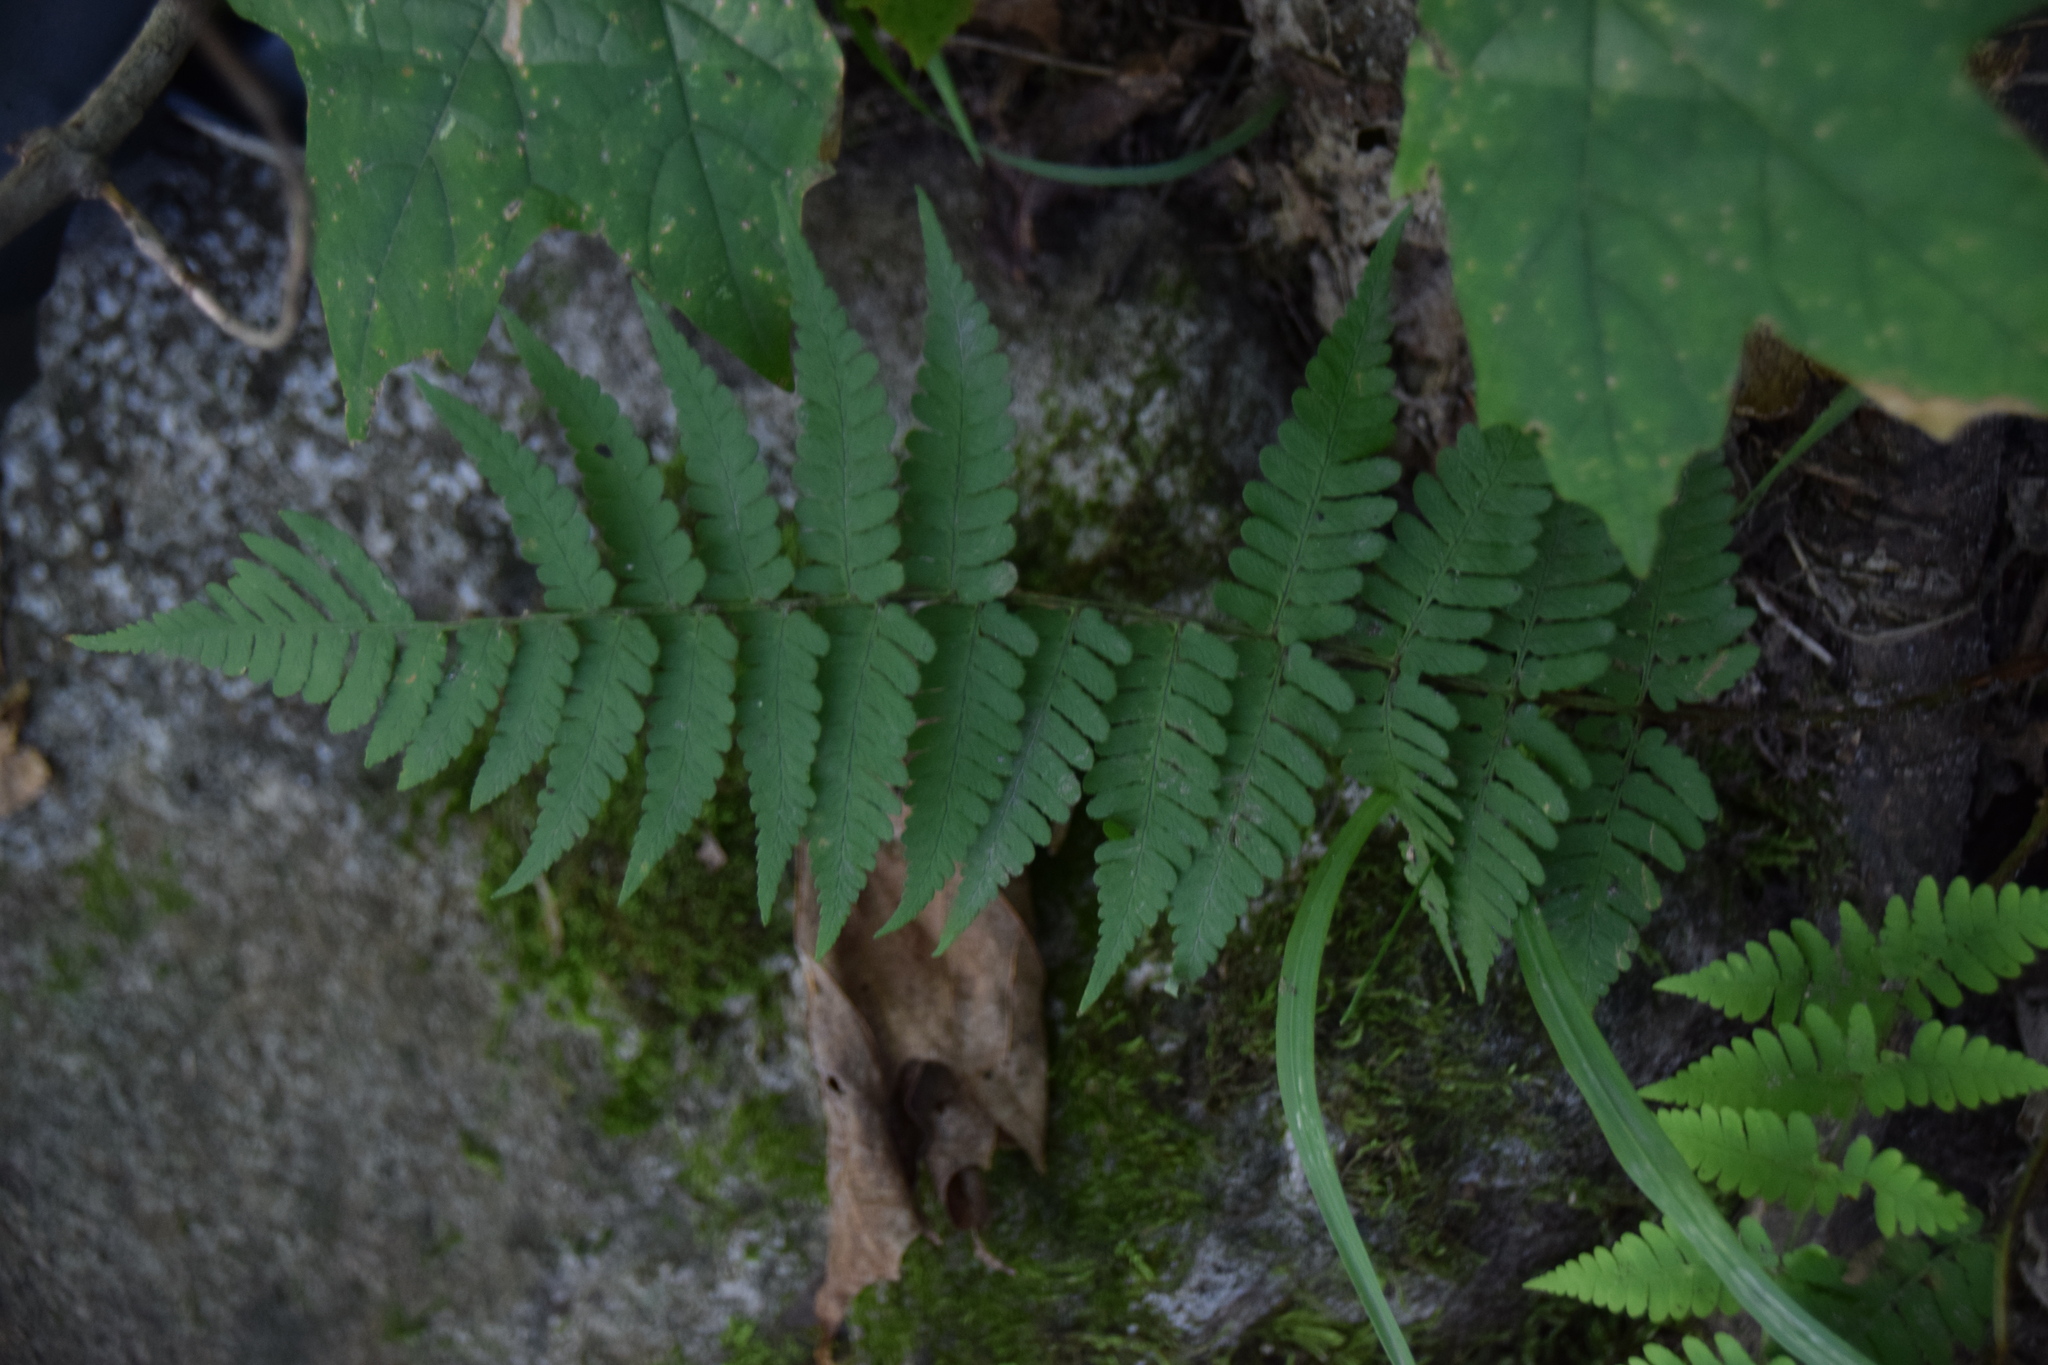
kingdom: Plantae
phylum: Tracheophyta
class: Polypodiopsida
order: Polypodiales
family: Dryopteridaceae
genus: Dryopteris
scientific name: Dryopteris marginalis
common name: Marginal wood fern
